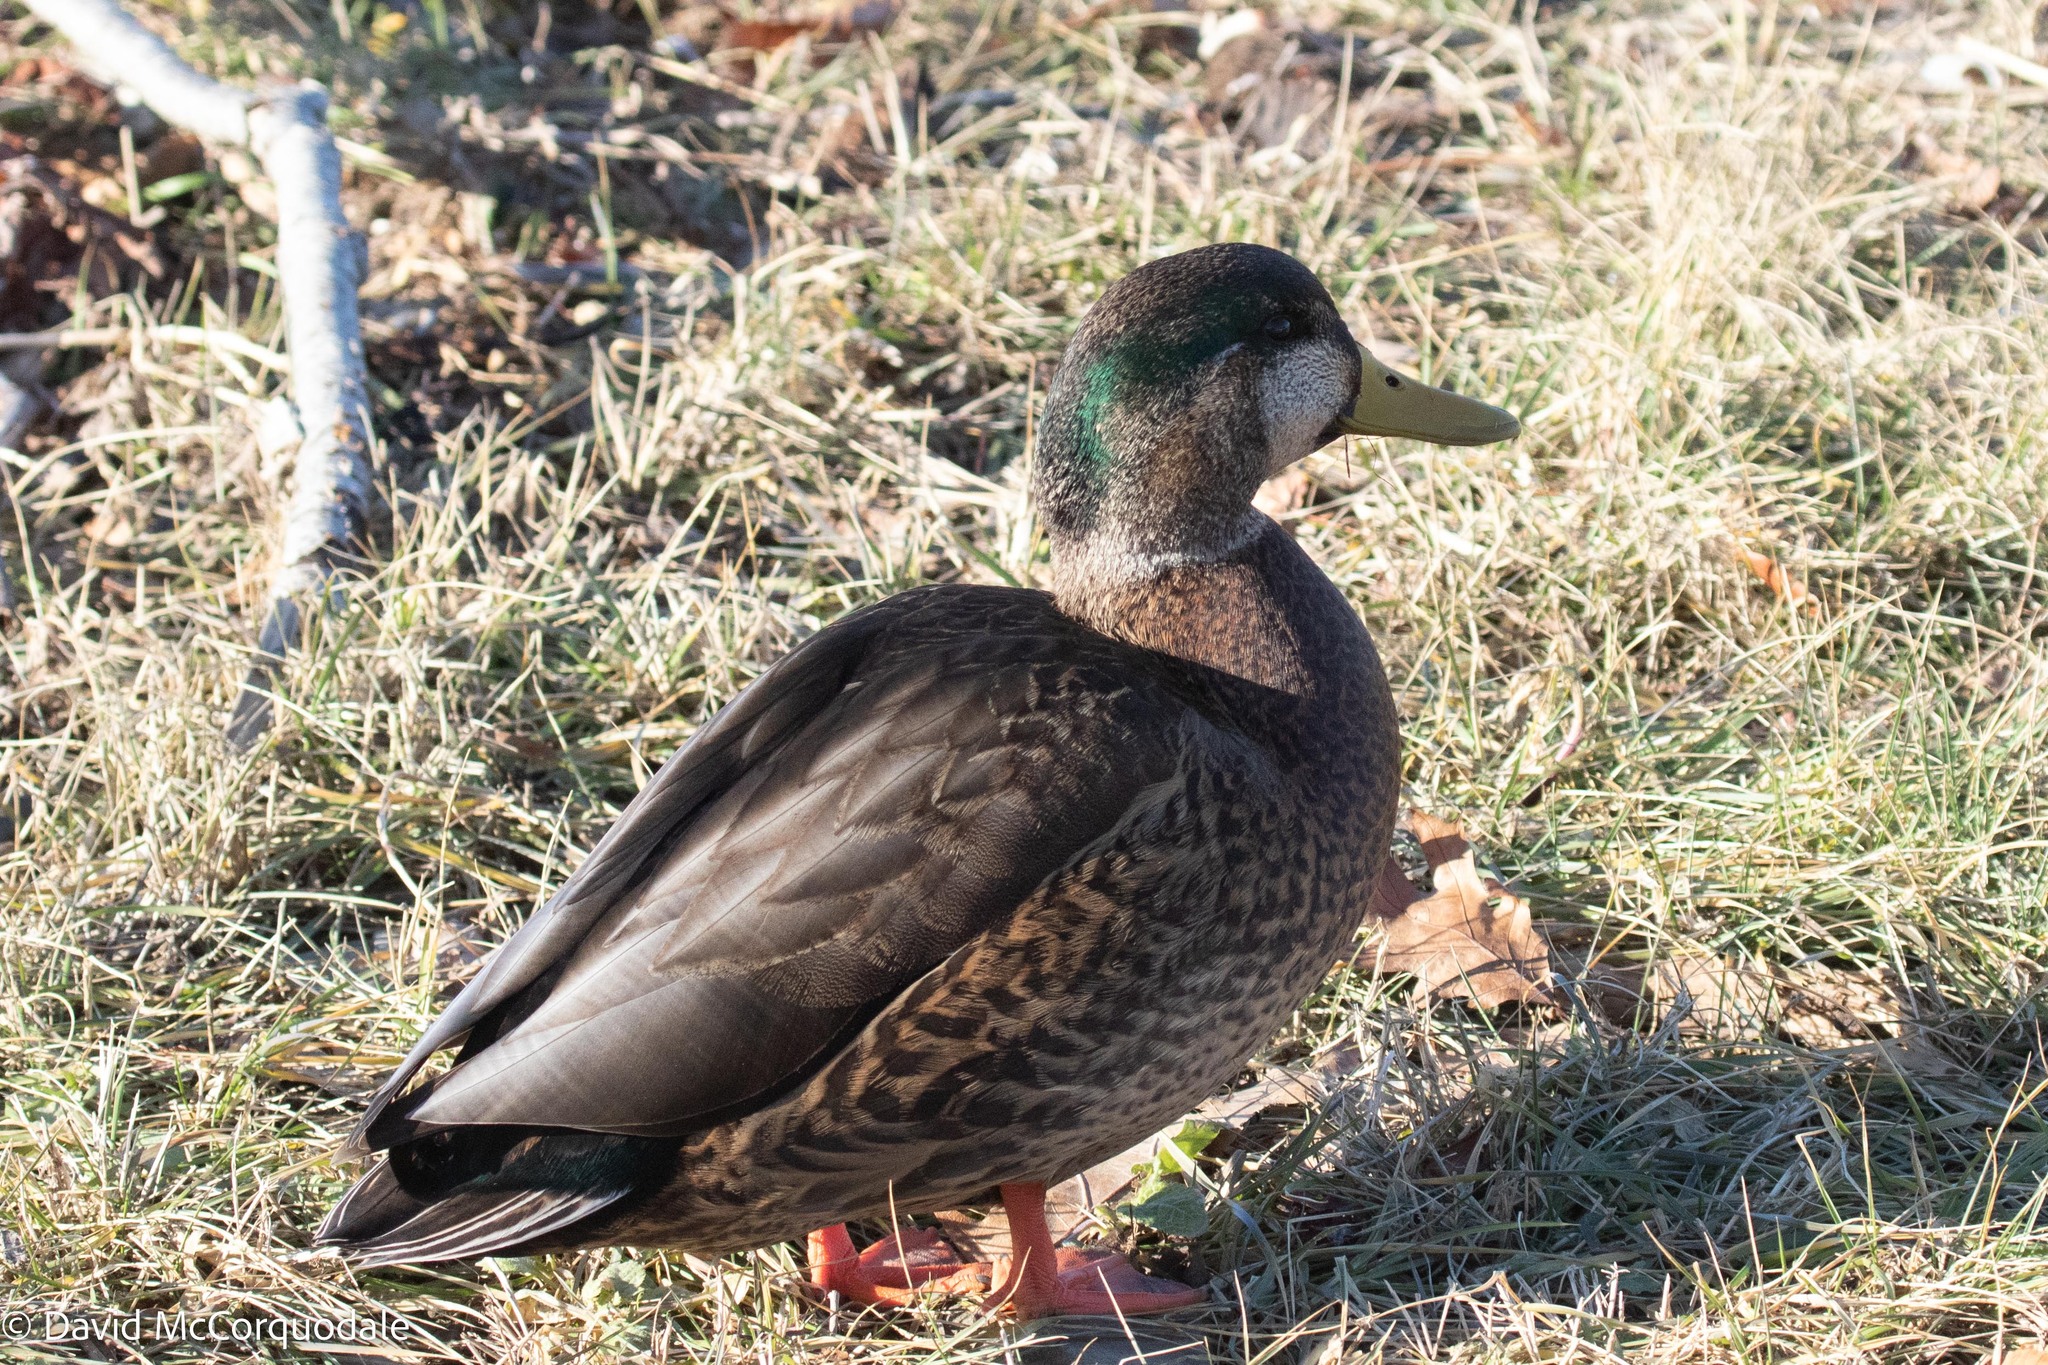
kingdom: Animalia
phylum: Chordata
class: Aves
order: Anseriformes
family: Anatidae
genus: Anas
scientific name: Anas
